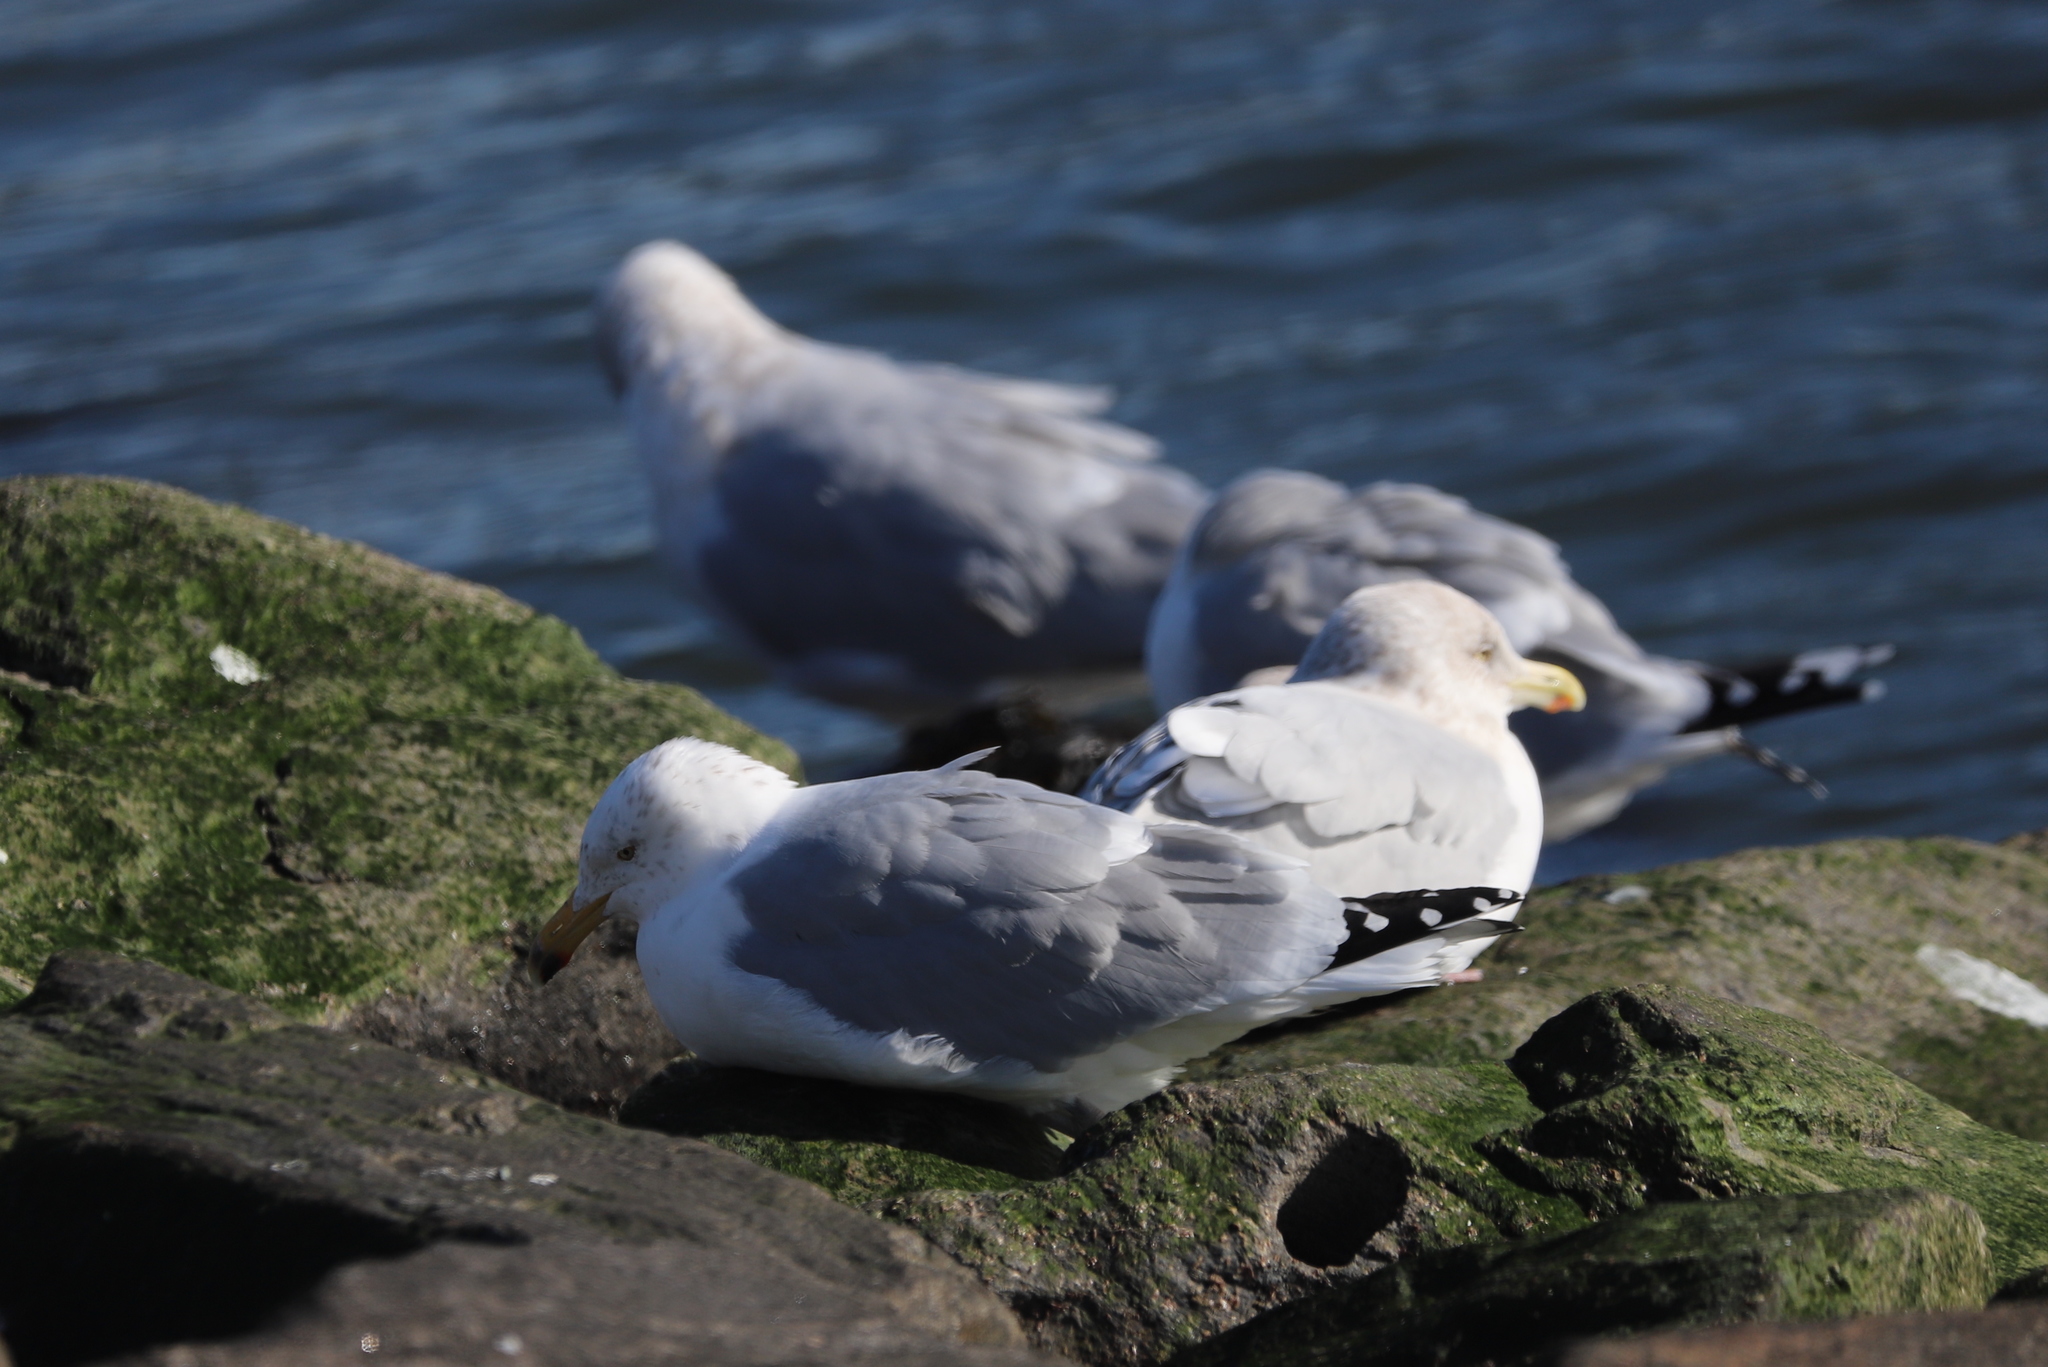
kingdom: Animalia
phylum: Chordata
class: Aves
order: Charadriiformes
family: Laridae
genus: Larus
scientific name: Larus argentatus
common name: Herring gull
